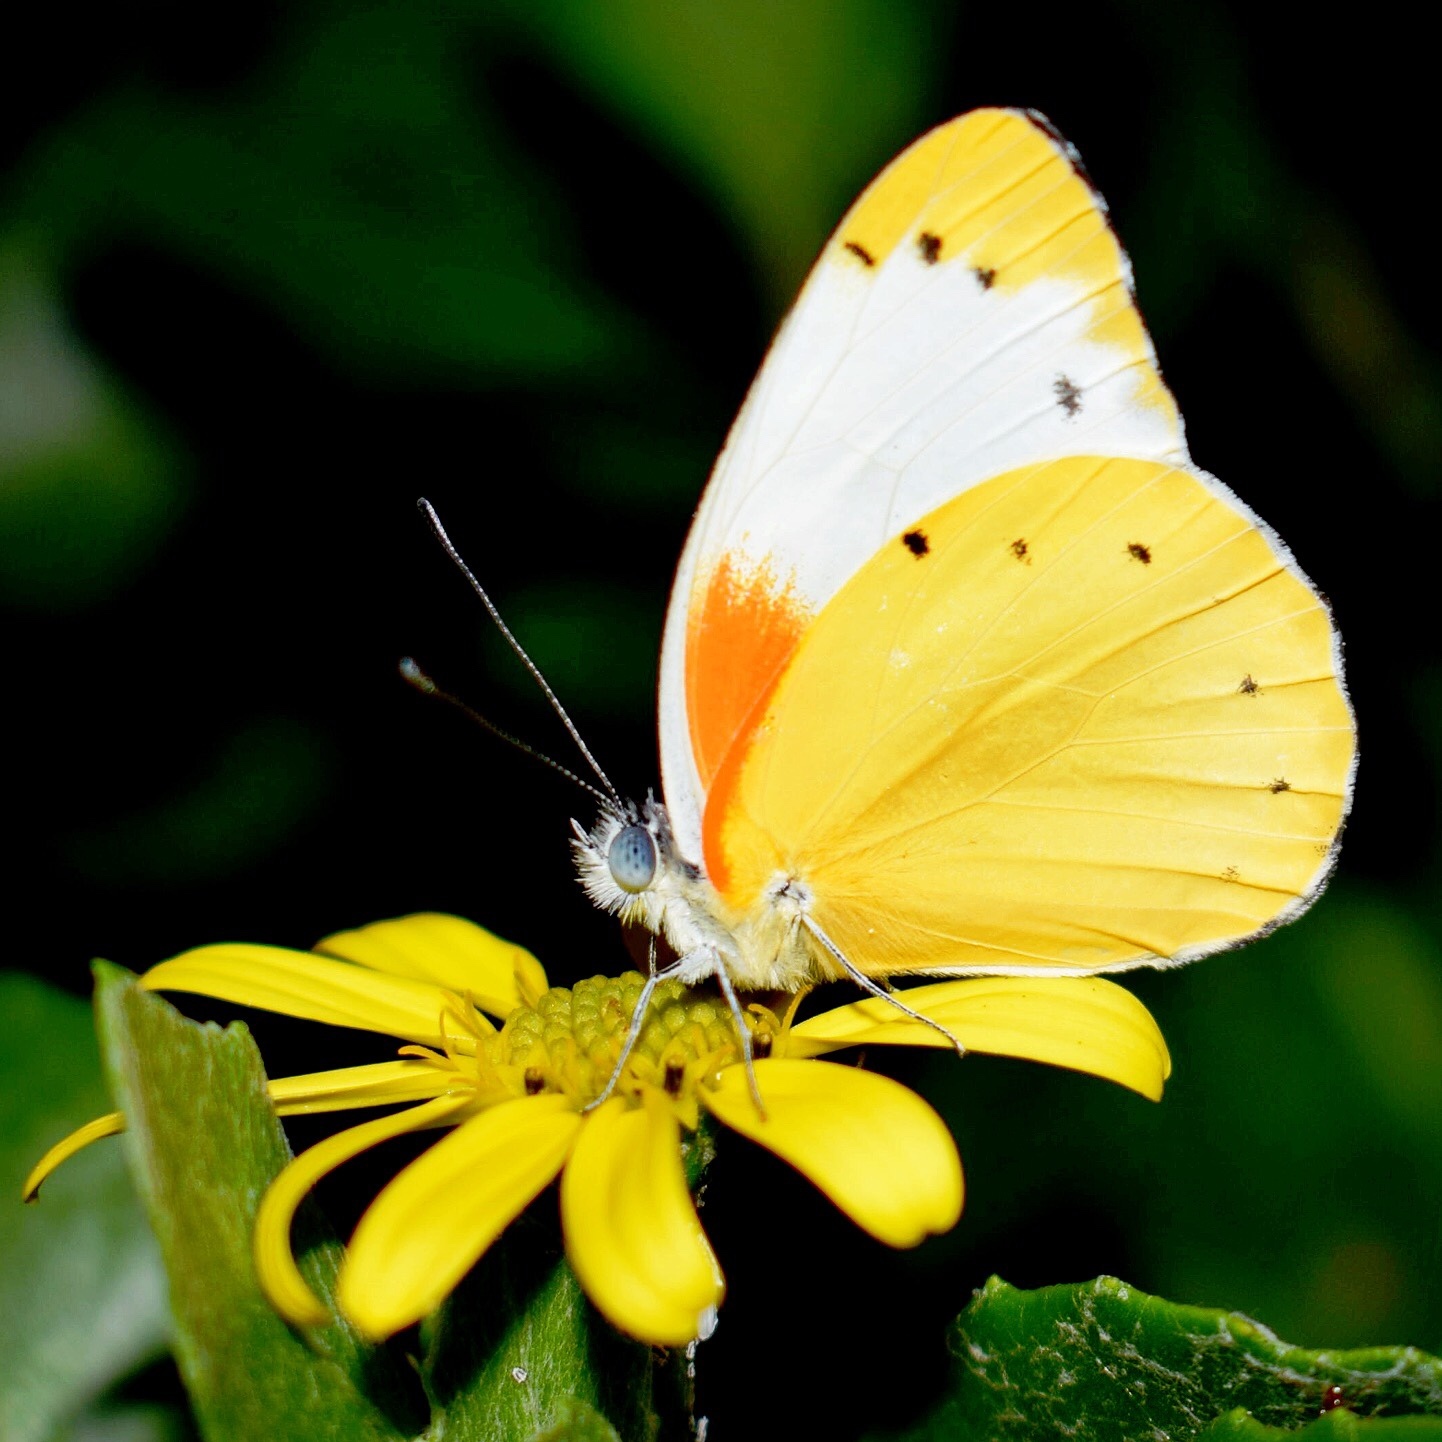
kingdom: Animalia
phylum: Arthropoda
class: Insecta
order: Lepidoptera
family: Pieridae
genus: Belenois
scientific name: Belenois thysa
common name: False dotted border
